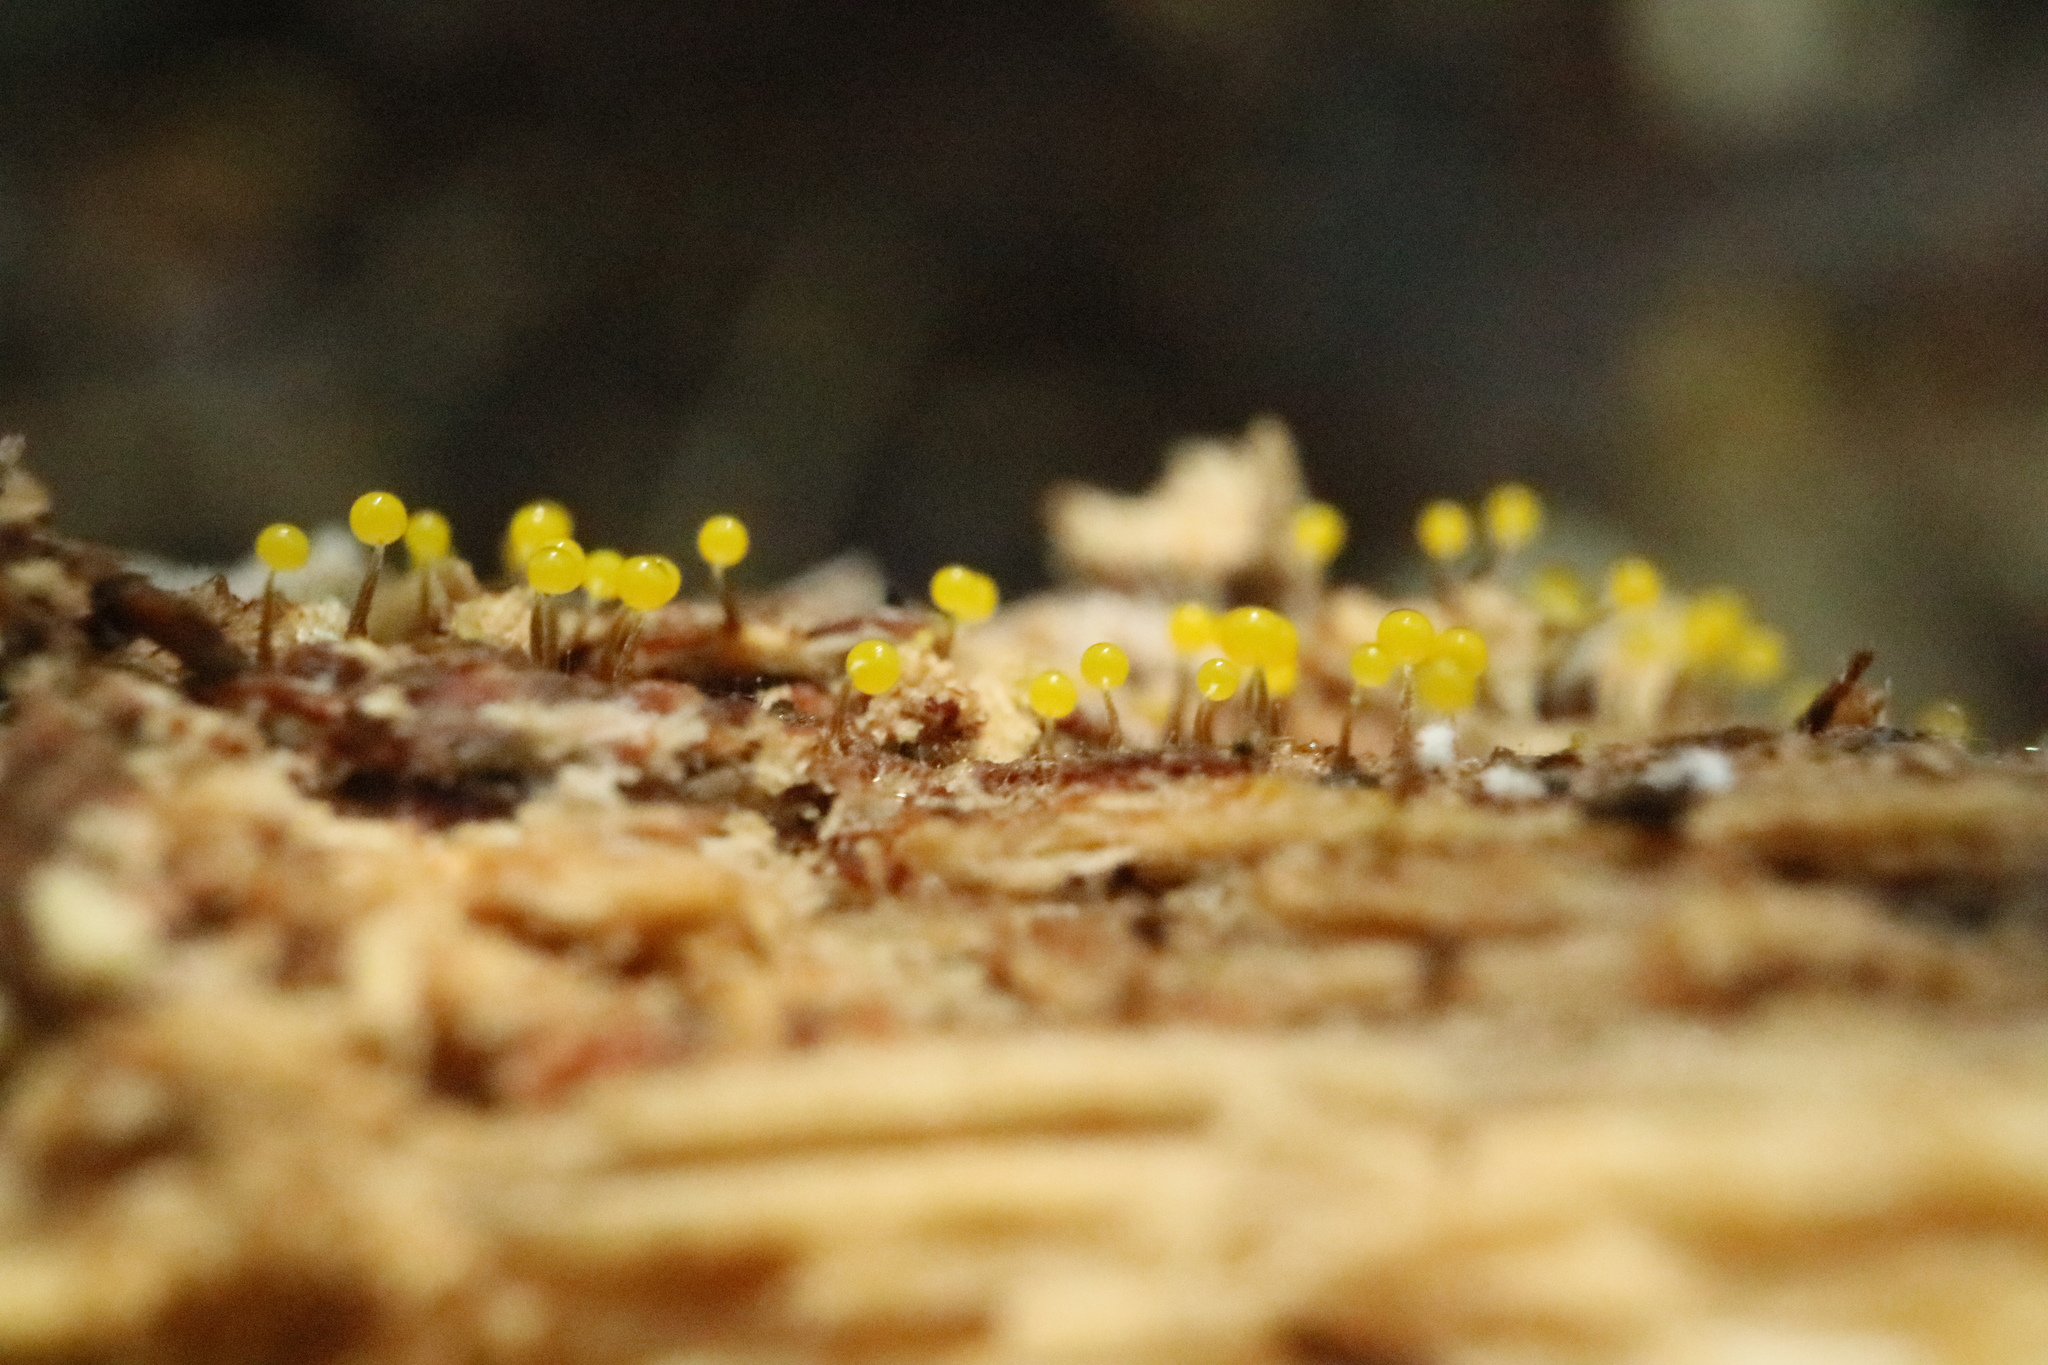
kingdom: Protozoa
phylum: Mycetozoa
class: Myxomycetes
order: Physarales
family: Physaraceae
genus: Physarum
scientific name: Physarum viride
